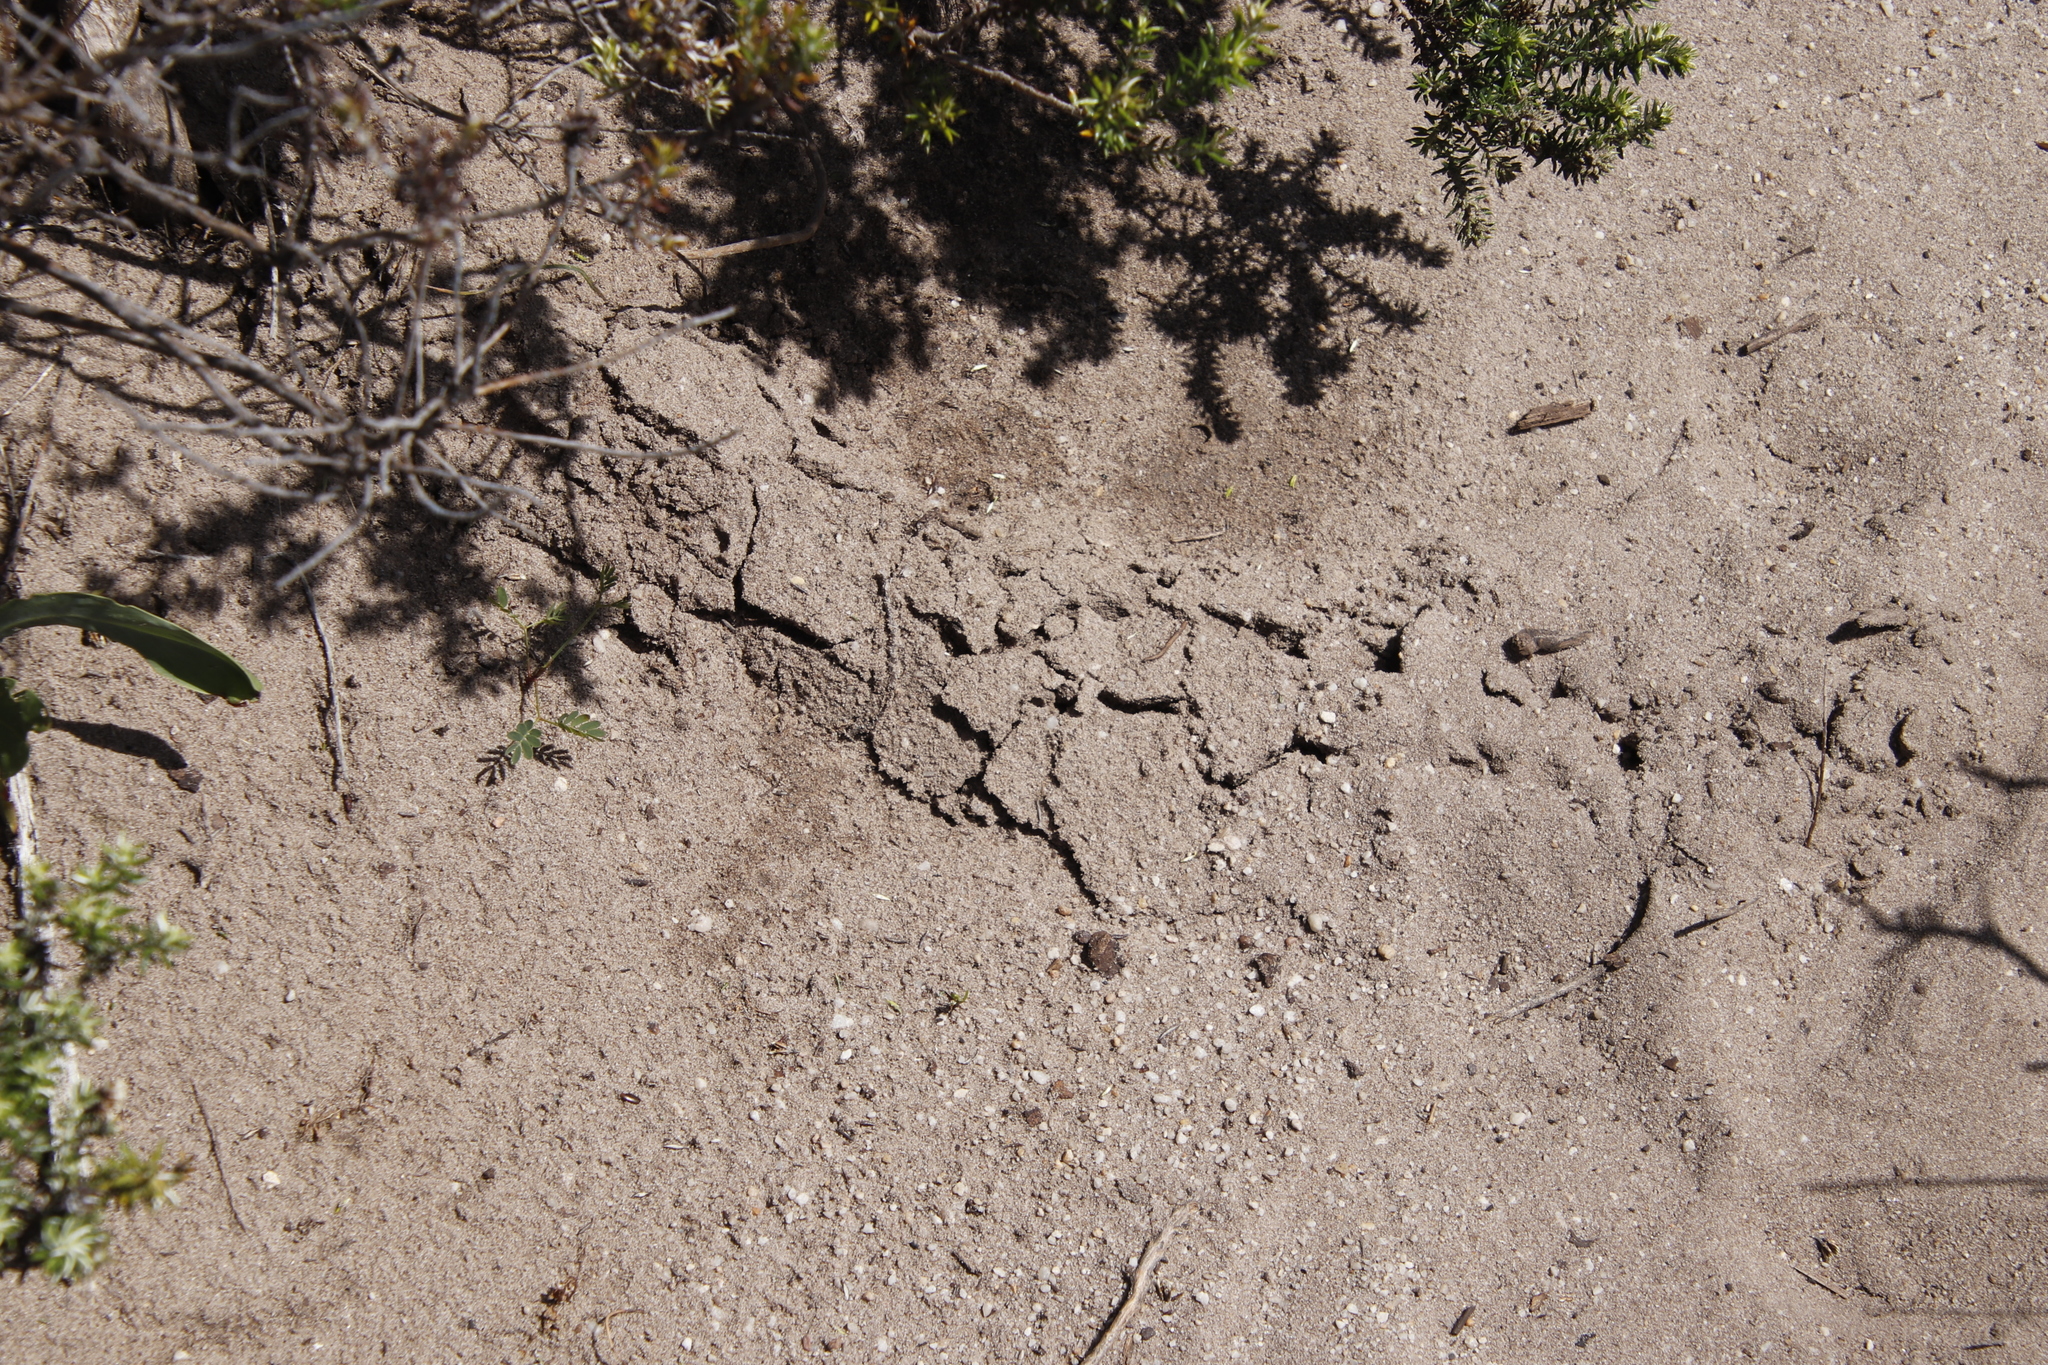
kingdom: Animalia
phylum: Chordata
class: Mammalia
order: Afrosoricida
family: Chrysochloridae
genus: Chrysochloris
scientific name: Chrysochloris asiatica
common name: Cape golden mole
